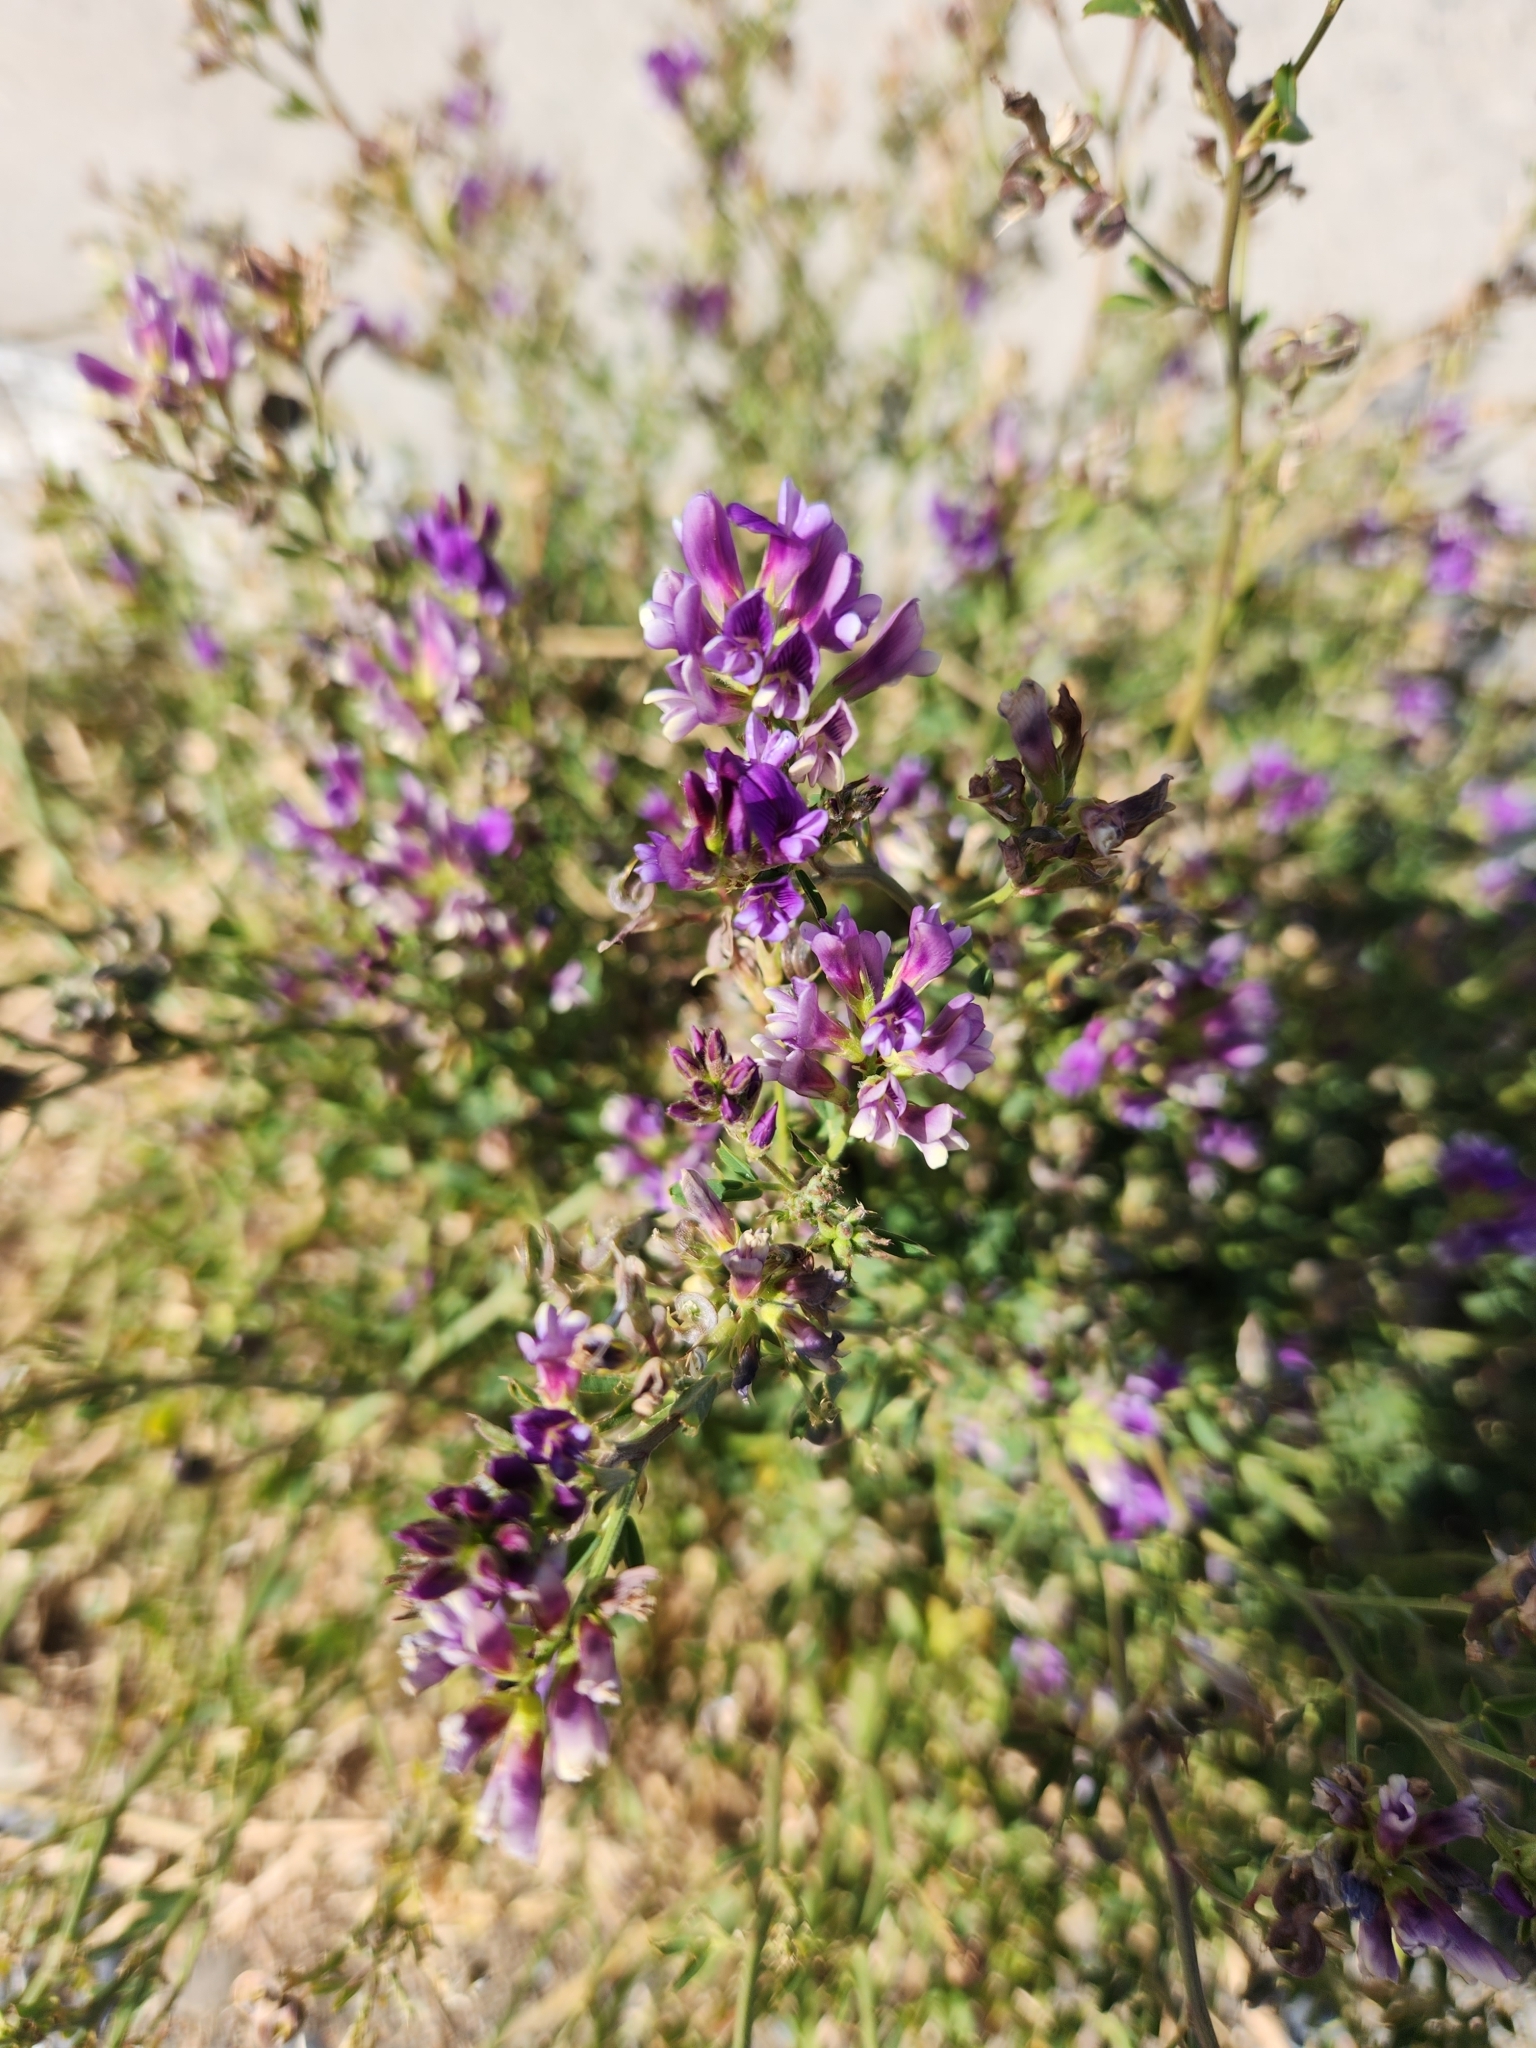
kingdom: Plantae
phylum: Tracheophyta
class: Magnoliopsida
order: Fabales
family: Fabaceae
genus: Medicago
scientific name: Medicago sativa
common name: Alfalfa
